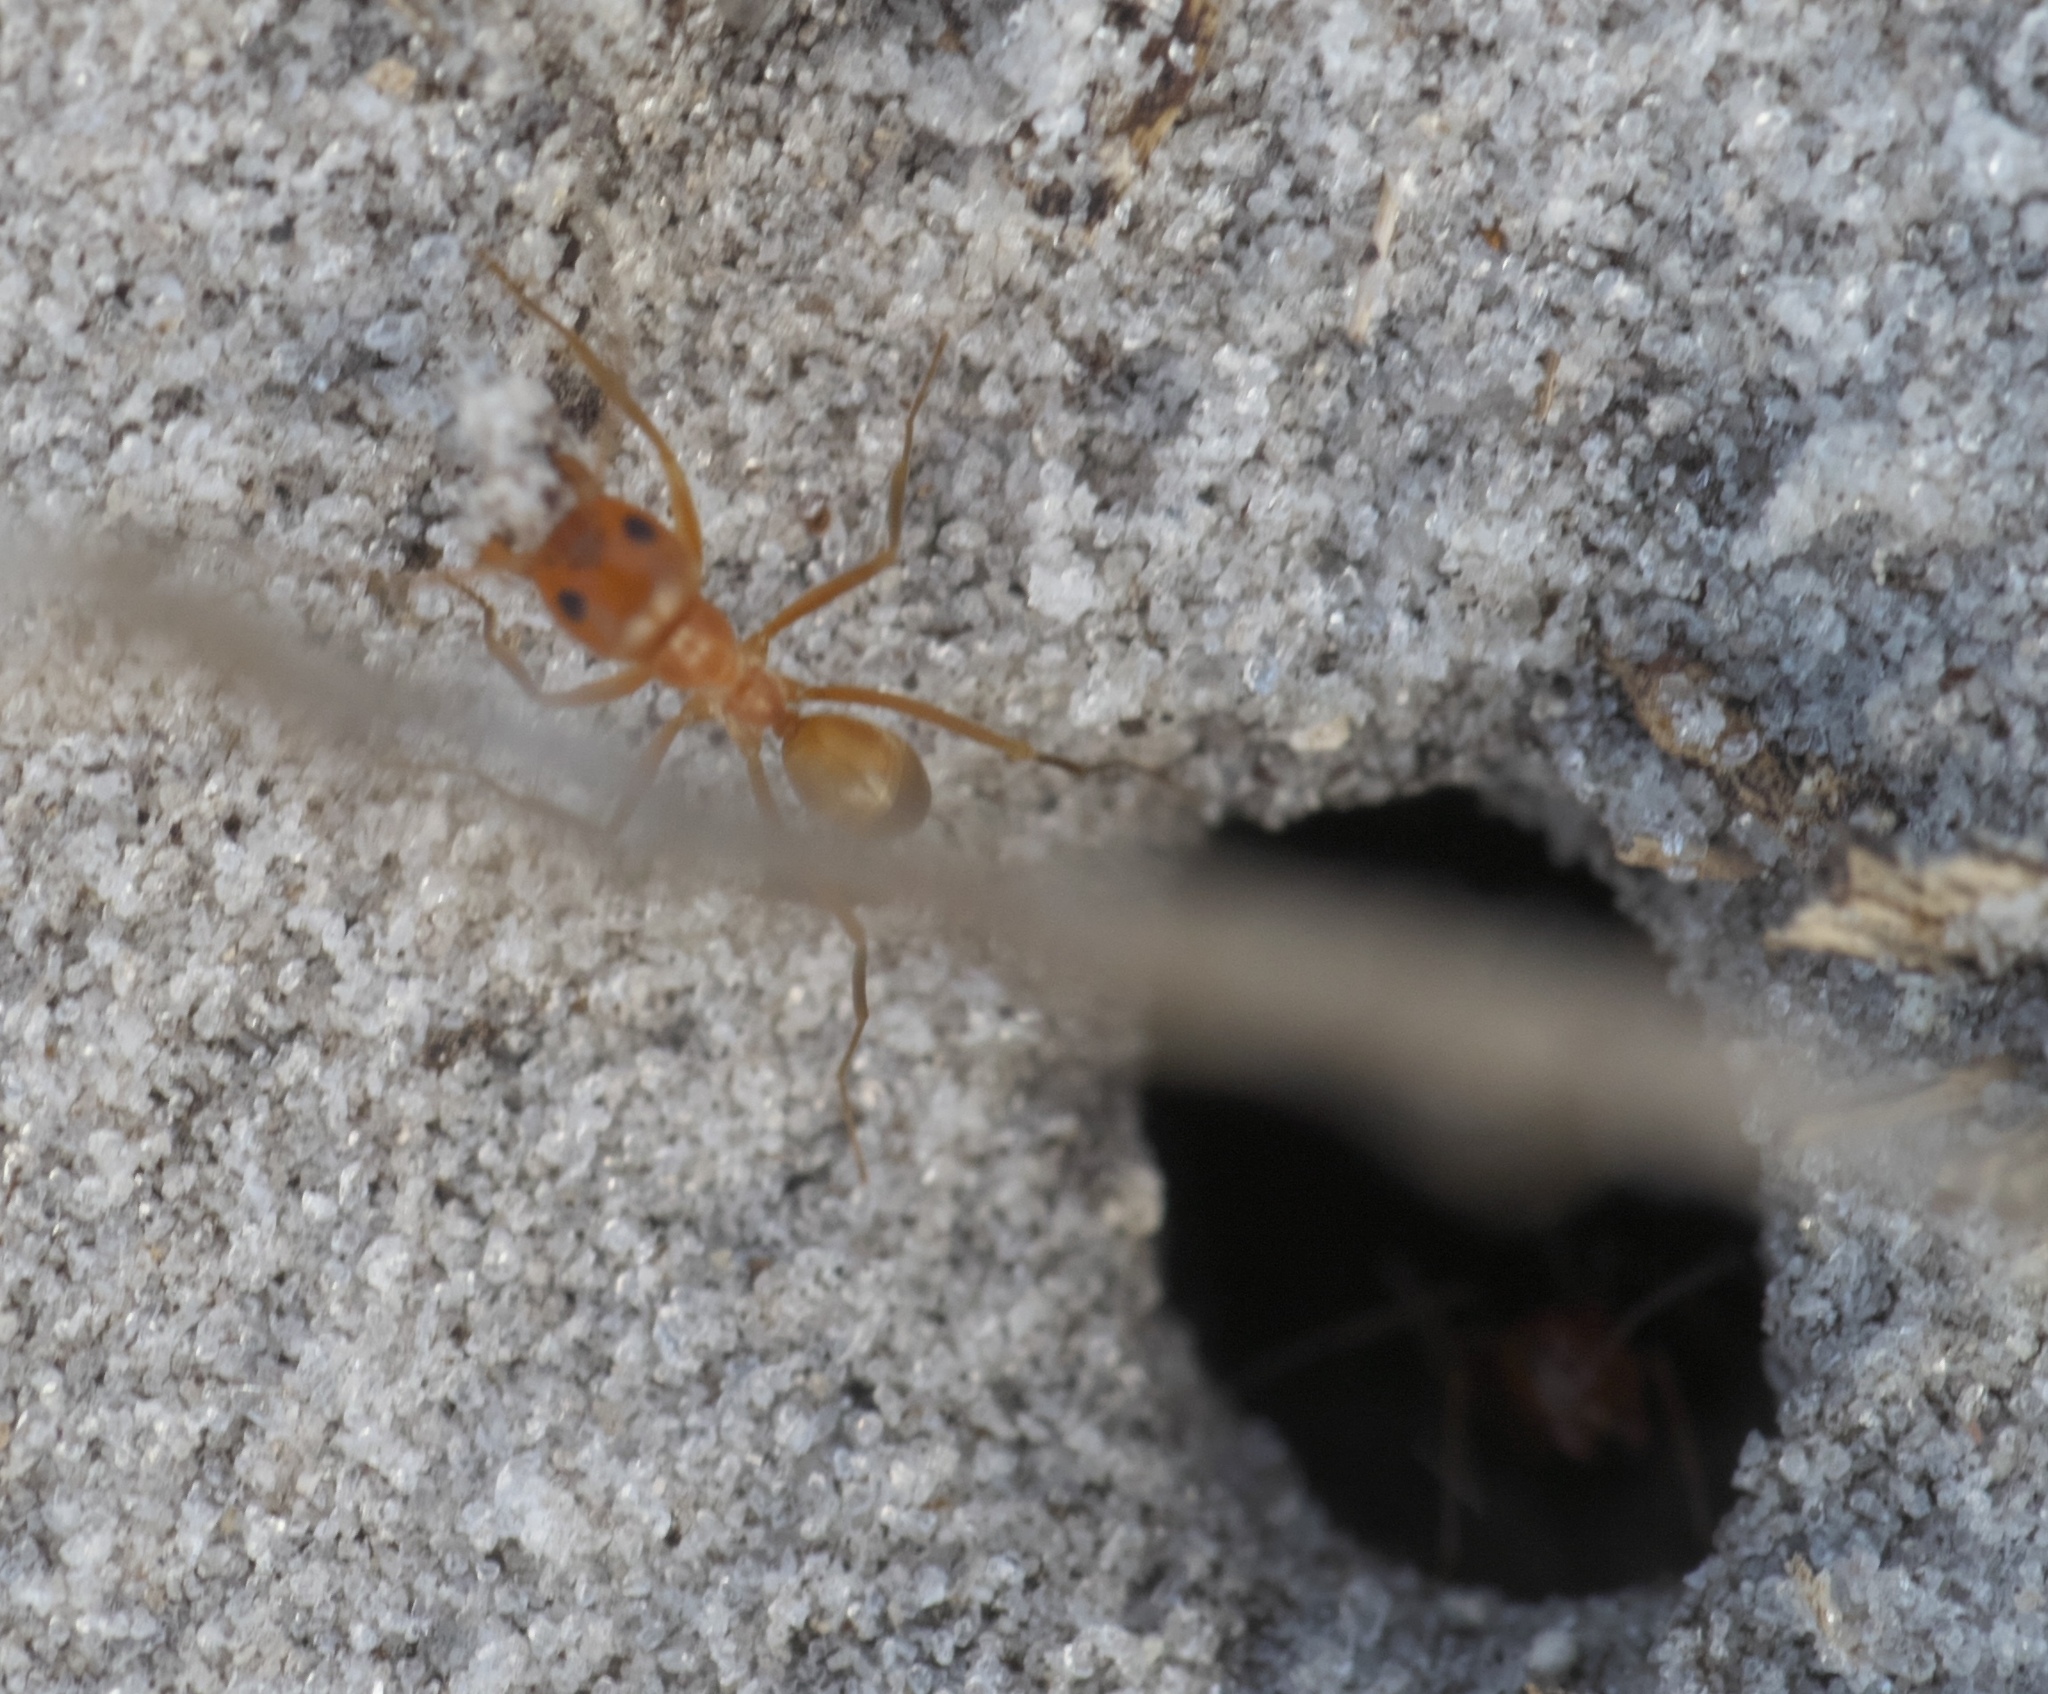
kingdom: Animalia
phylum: Arthropoda
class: Insecta
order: Hymenoptera
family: Formicidae
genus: Dorymyrmex
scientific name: Dorymyrmex bureni
